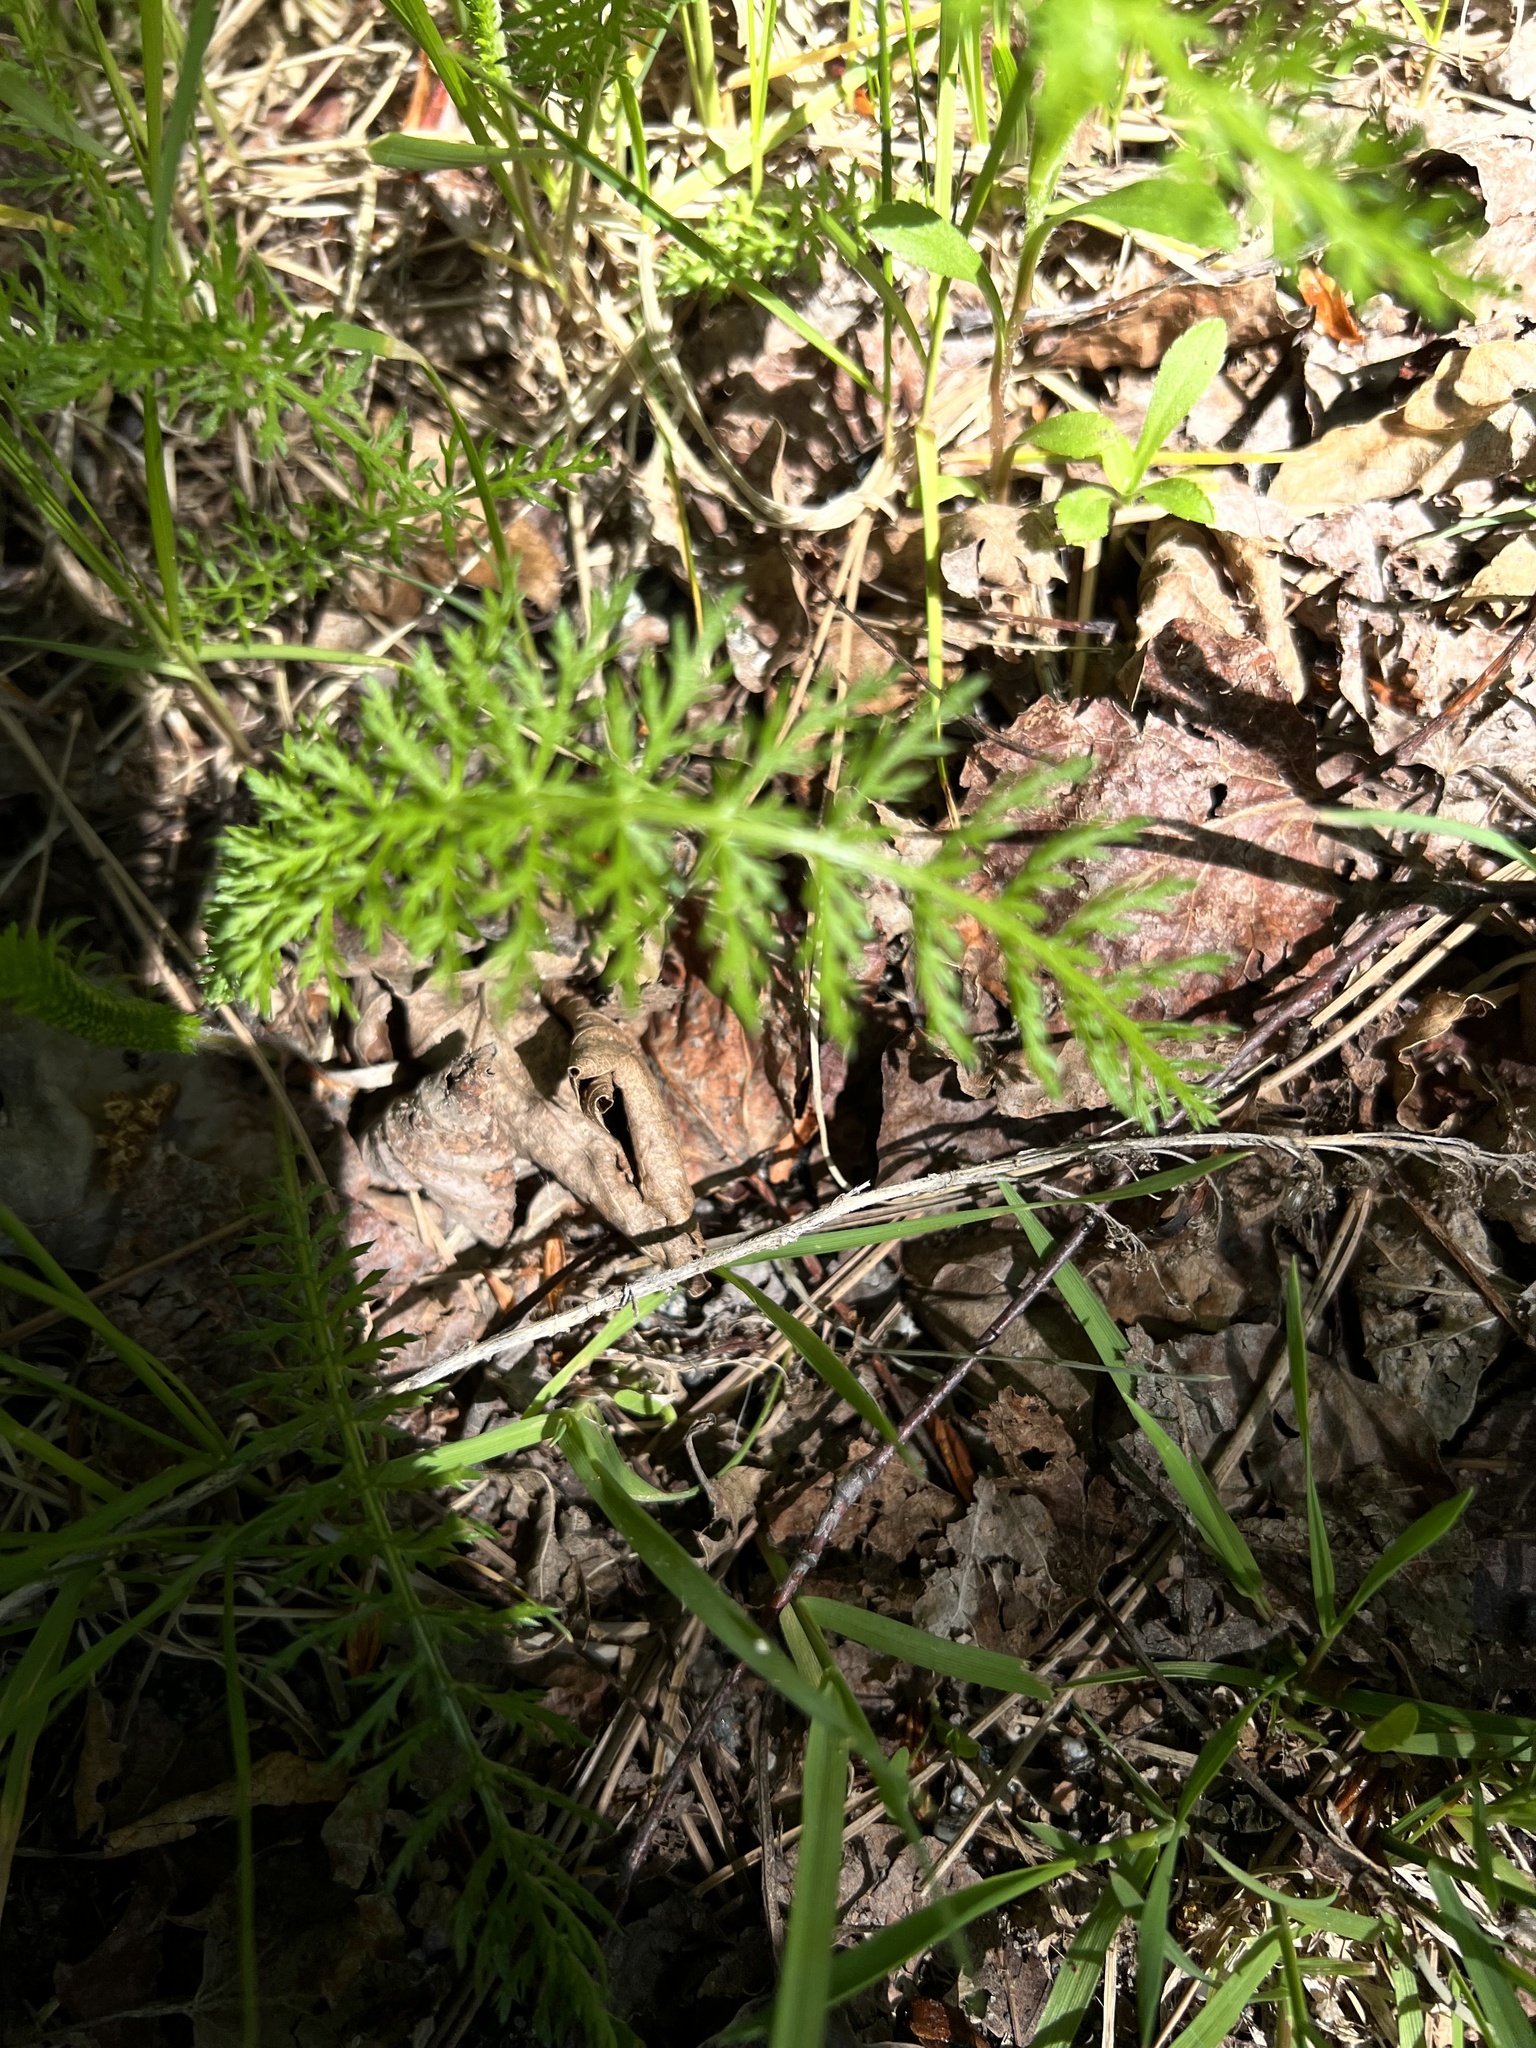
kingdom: Plantae
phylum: Tracheophyta
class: Magnoliopsida
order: Asterales
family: Asteraceae
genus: Achillea
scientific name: Achillea millefolium
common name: Yarrow
